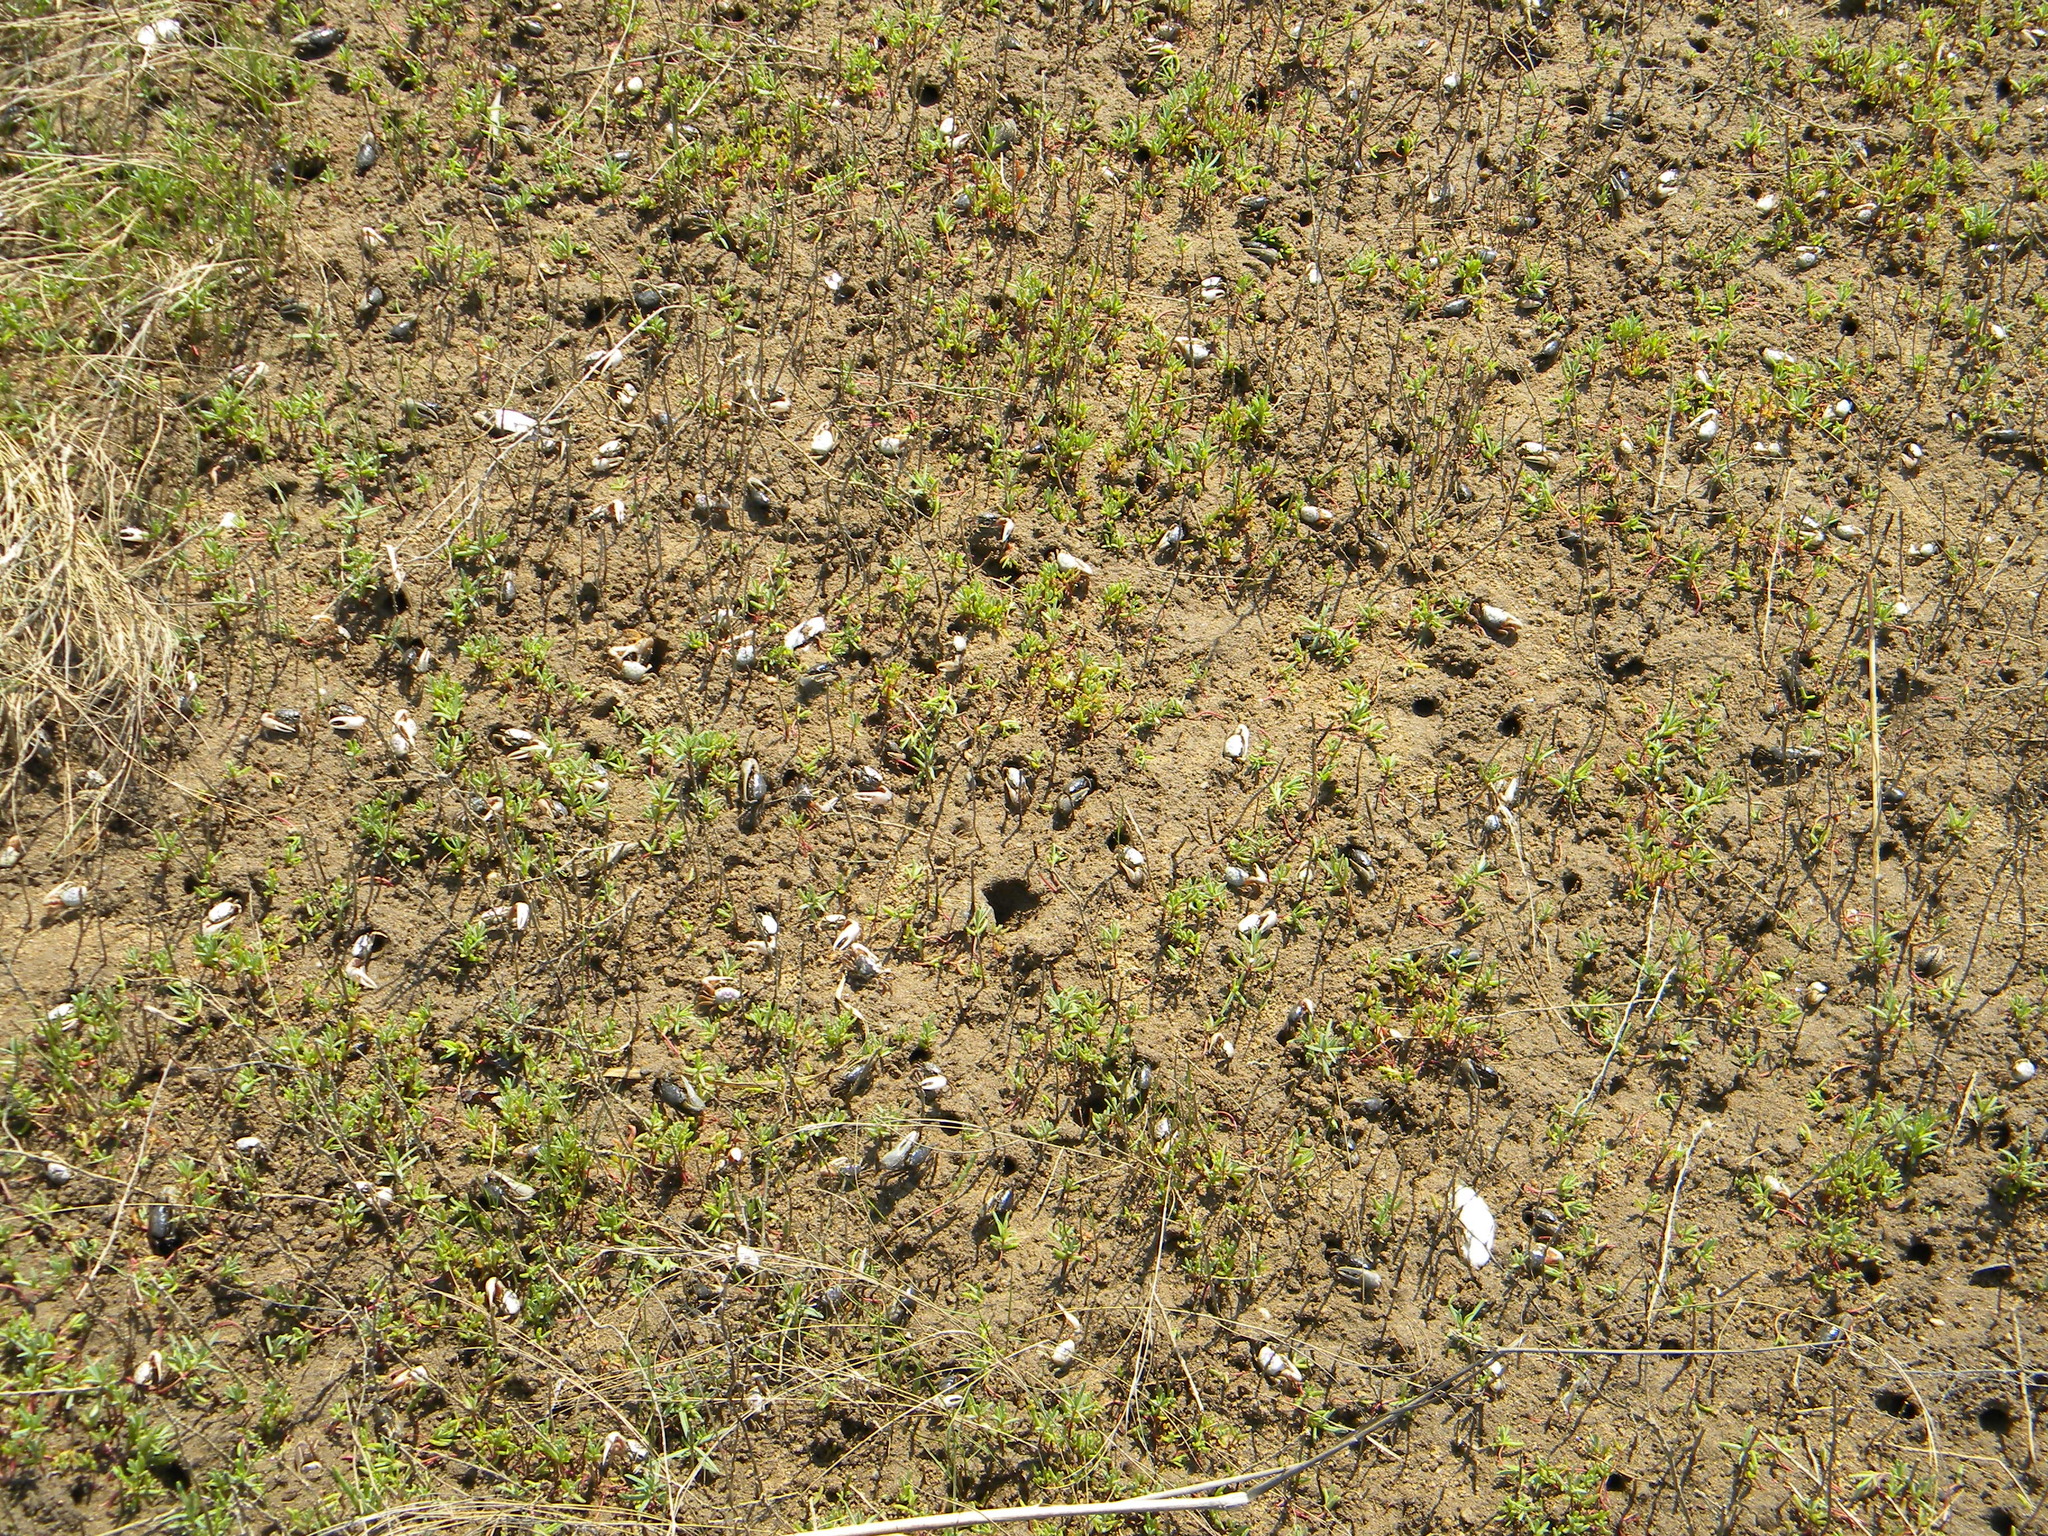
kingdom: Animalia
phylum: Arthropoda
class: Malacostraca
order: Decapoda
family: Ocypodidae
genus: Leptuca
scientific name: Leptuca pugilator
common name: Atlantic sand fiddler crab
